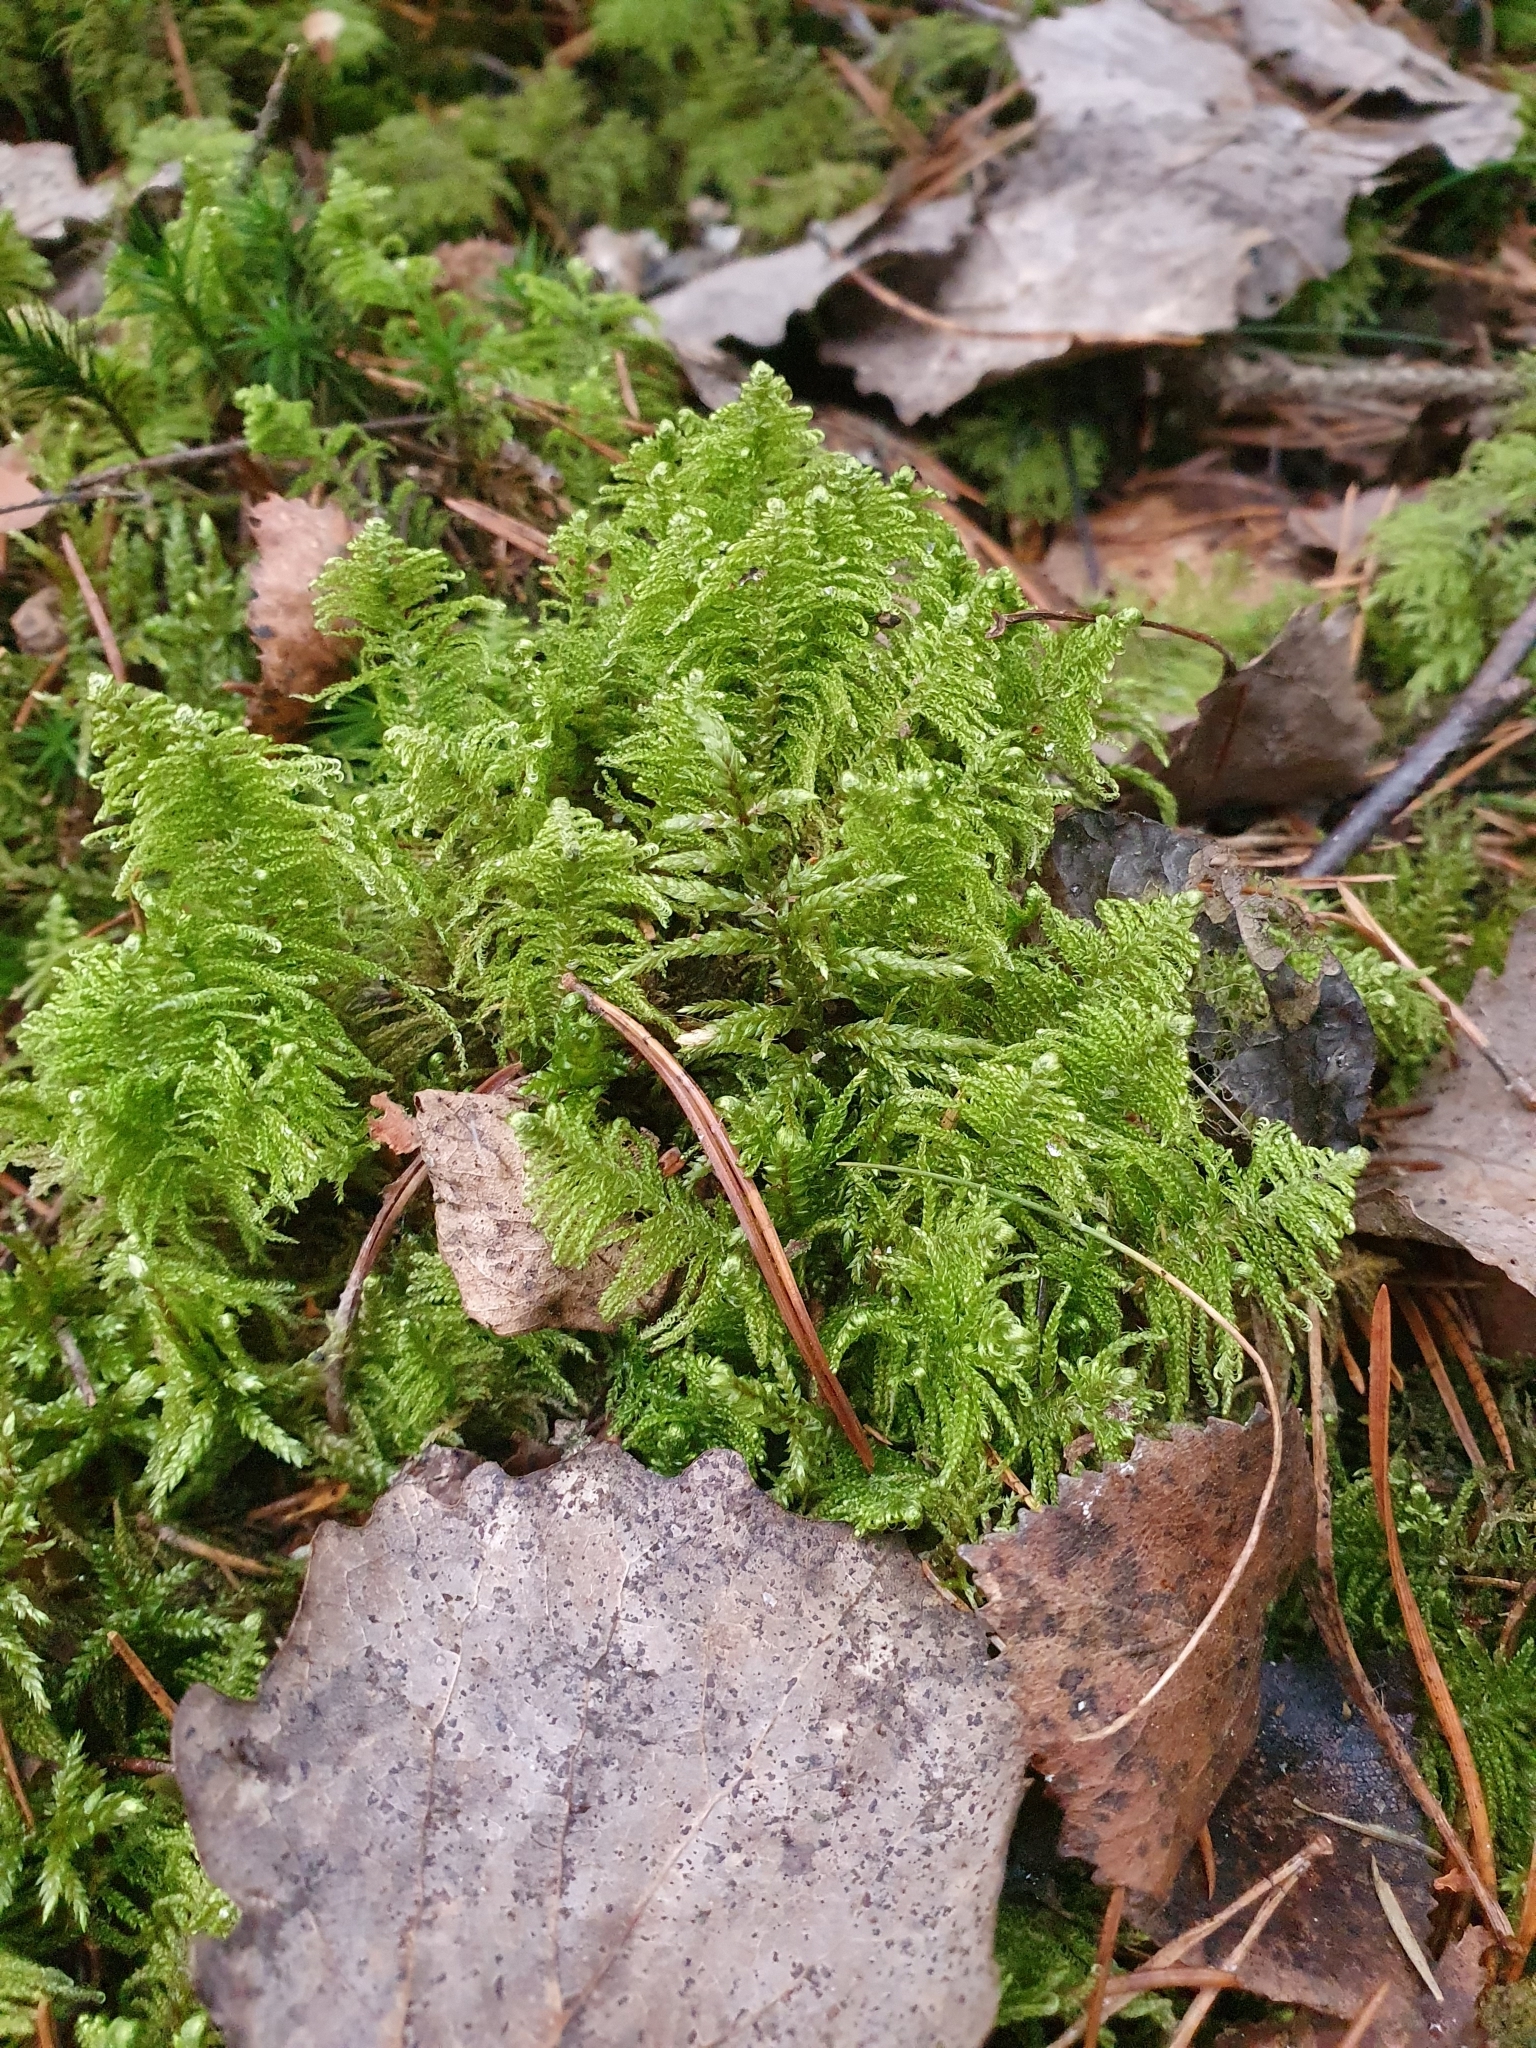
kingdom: Plantae
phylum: Bryophyta
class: Bryopsida
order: Hypnales
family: Pylaisiaceae
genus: Ptilium
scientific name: Ptilium crista-castrensis
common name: Knight's plume moss
